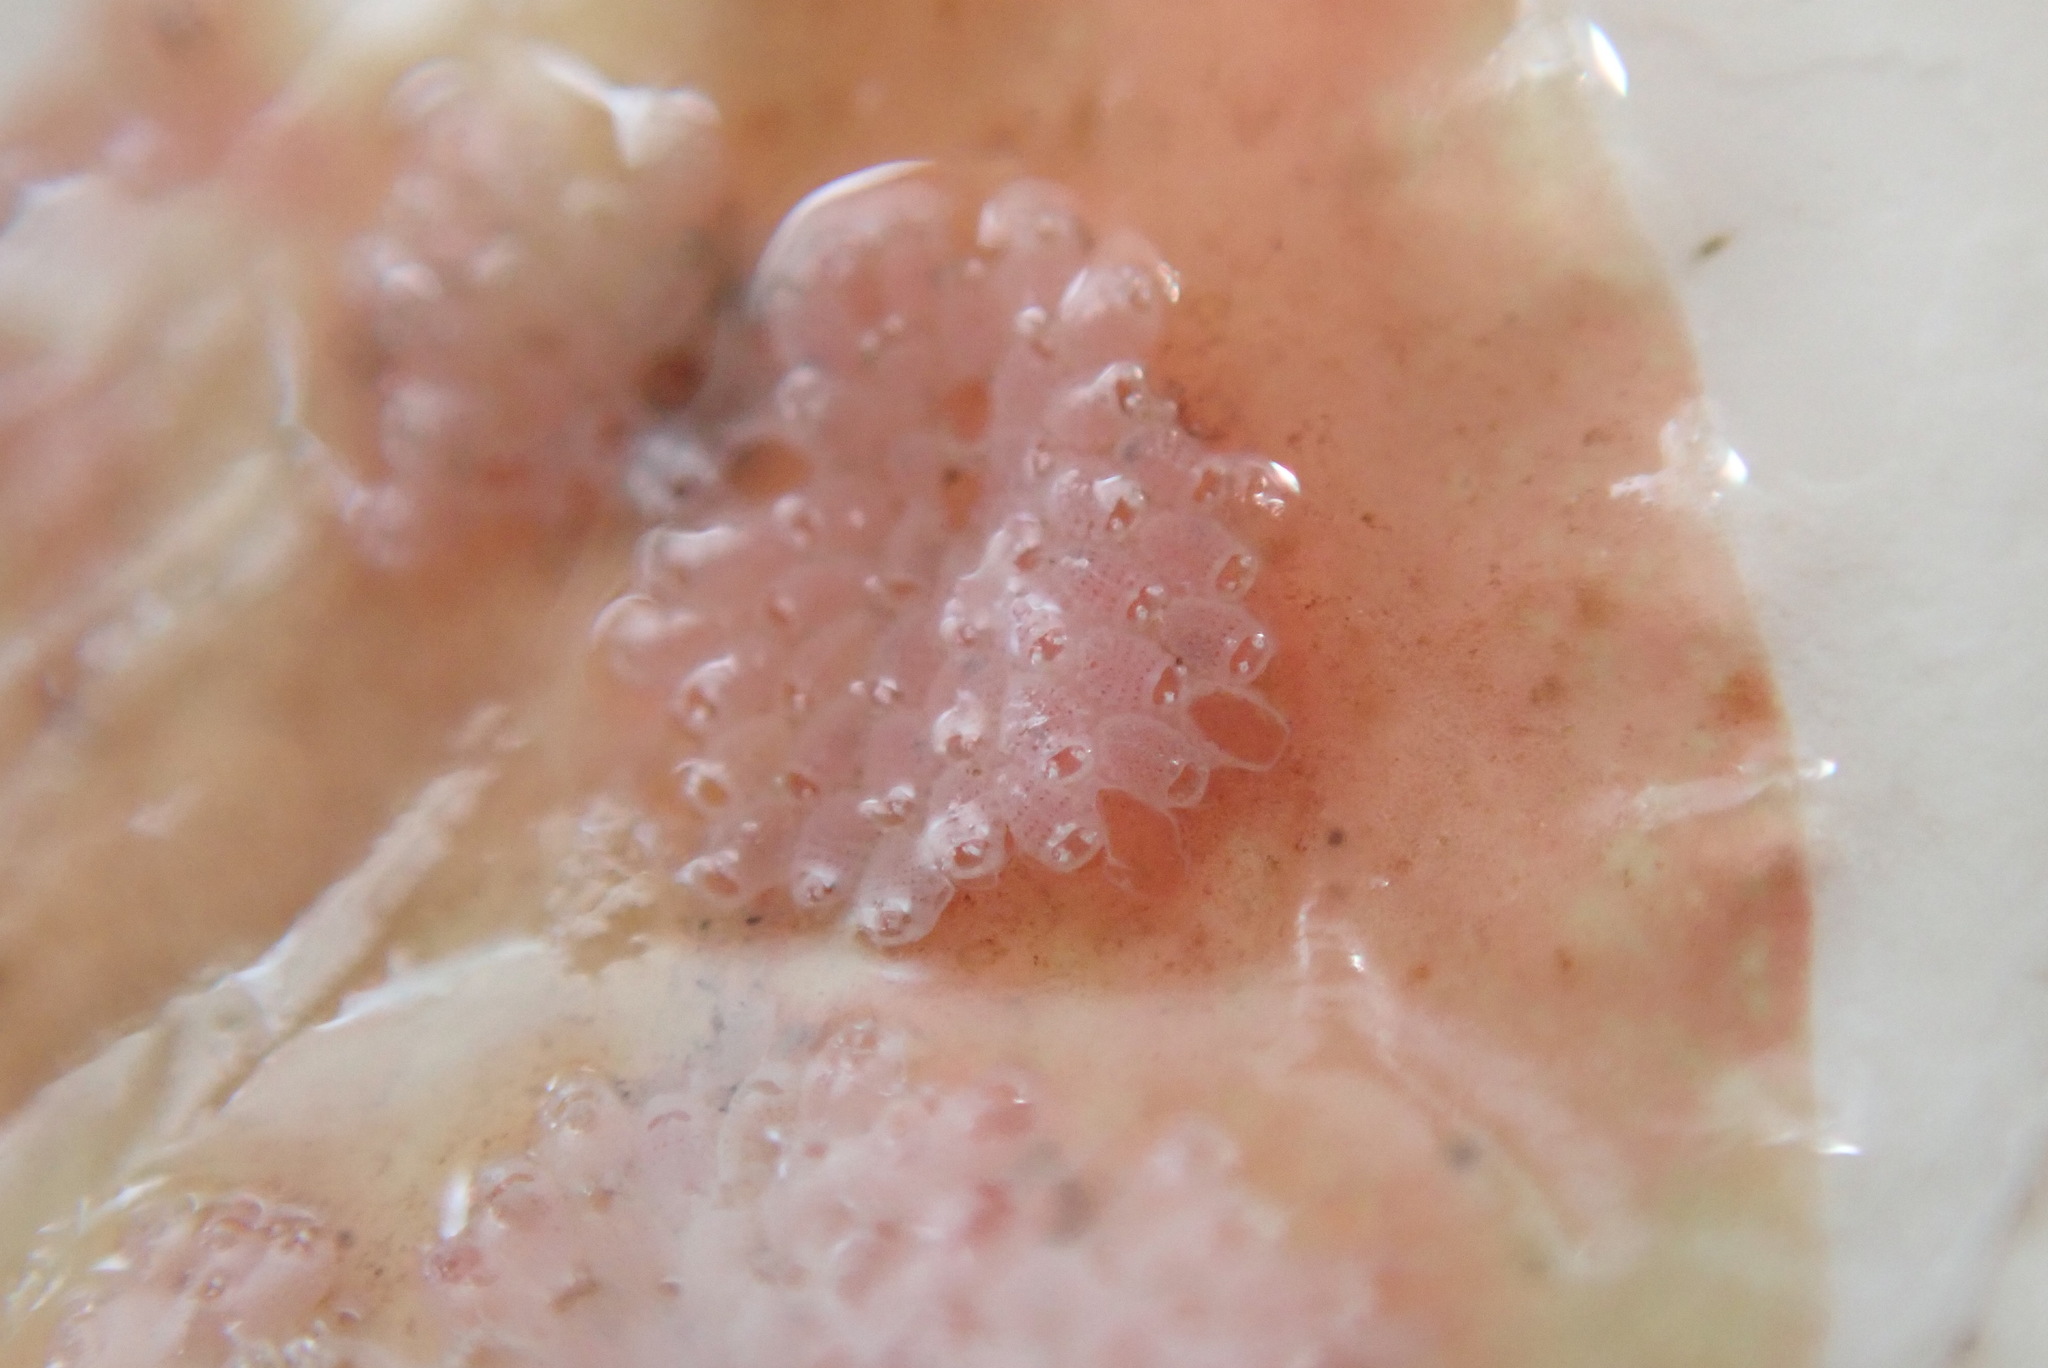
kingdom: Animalia
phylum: Bryozoa
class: Gymnolaemata
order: Cheilostomatida
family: Cribrilinidae
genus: Juxtacribrilina
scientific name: Juxtacribrilina annulata
